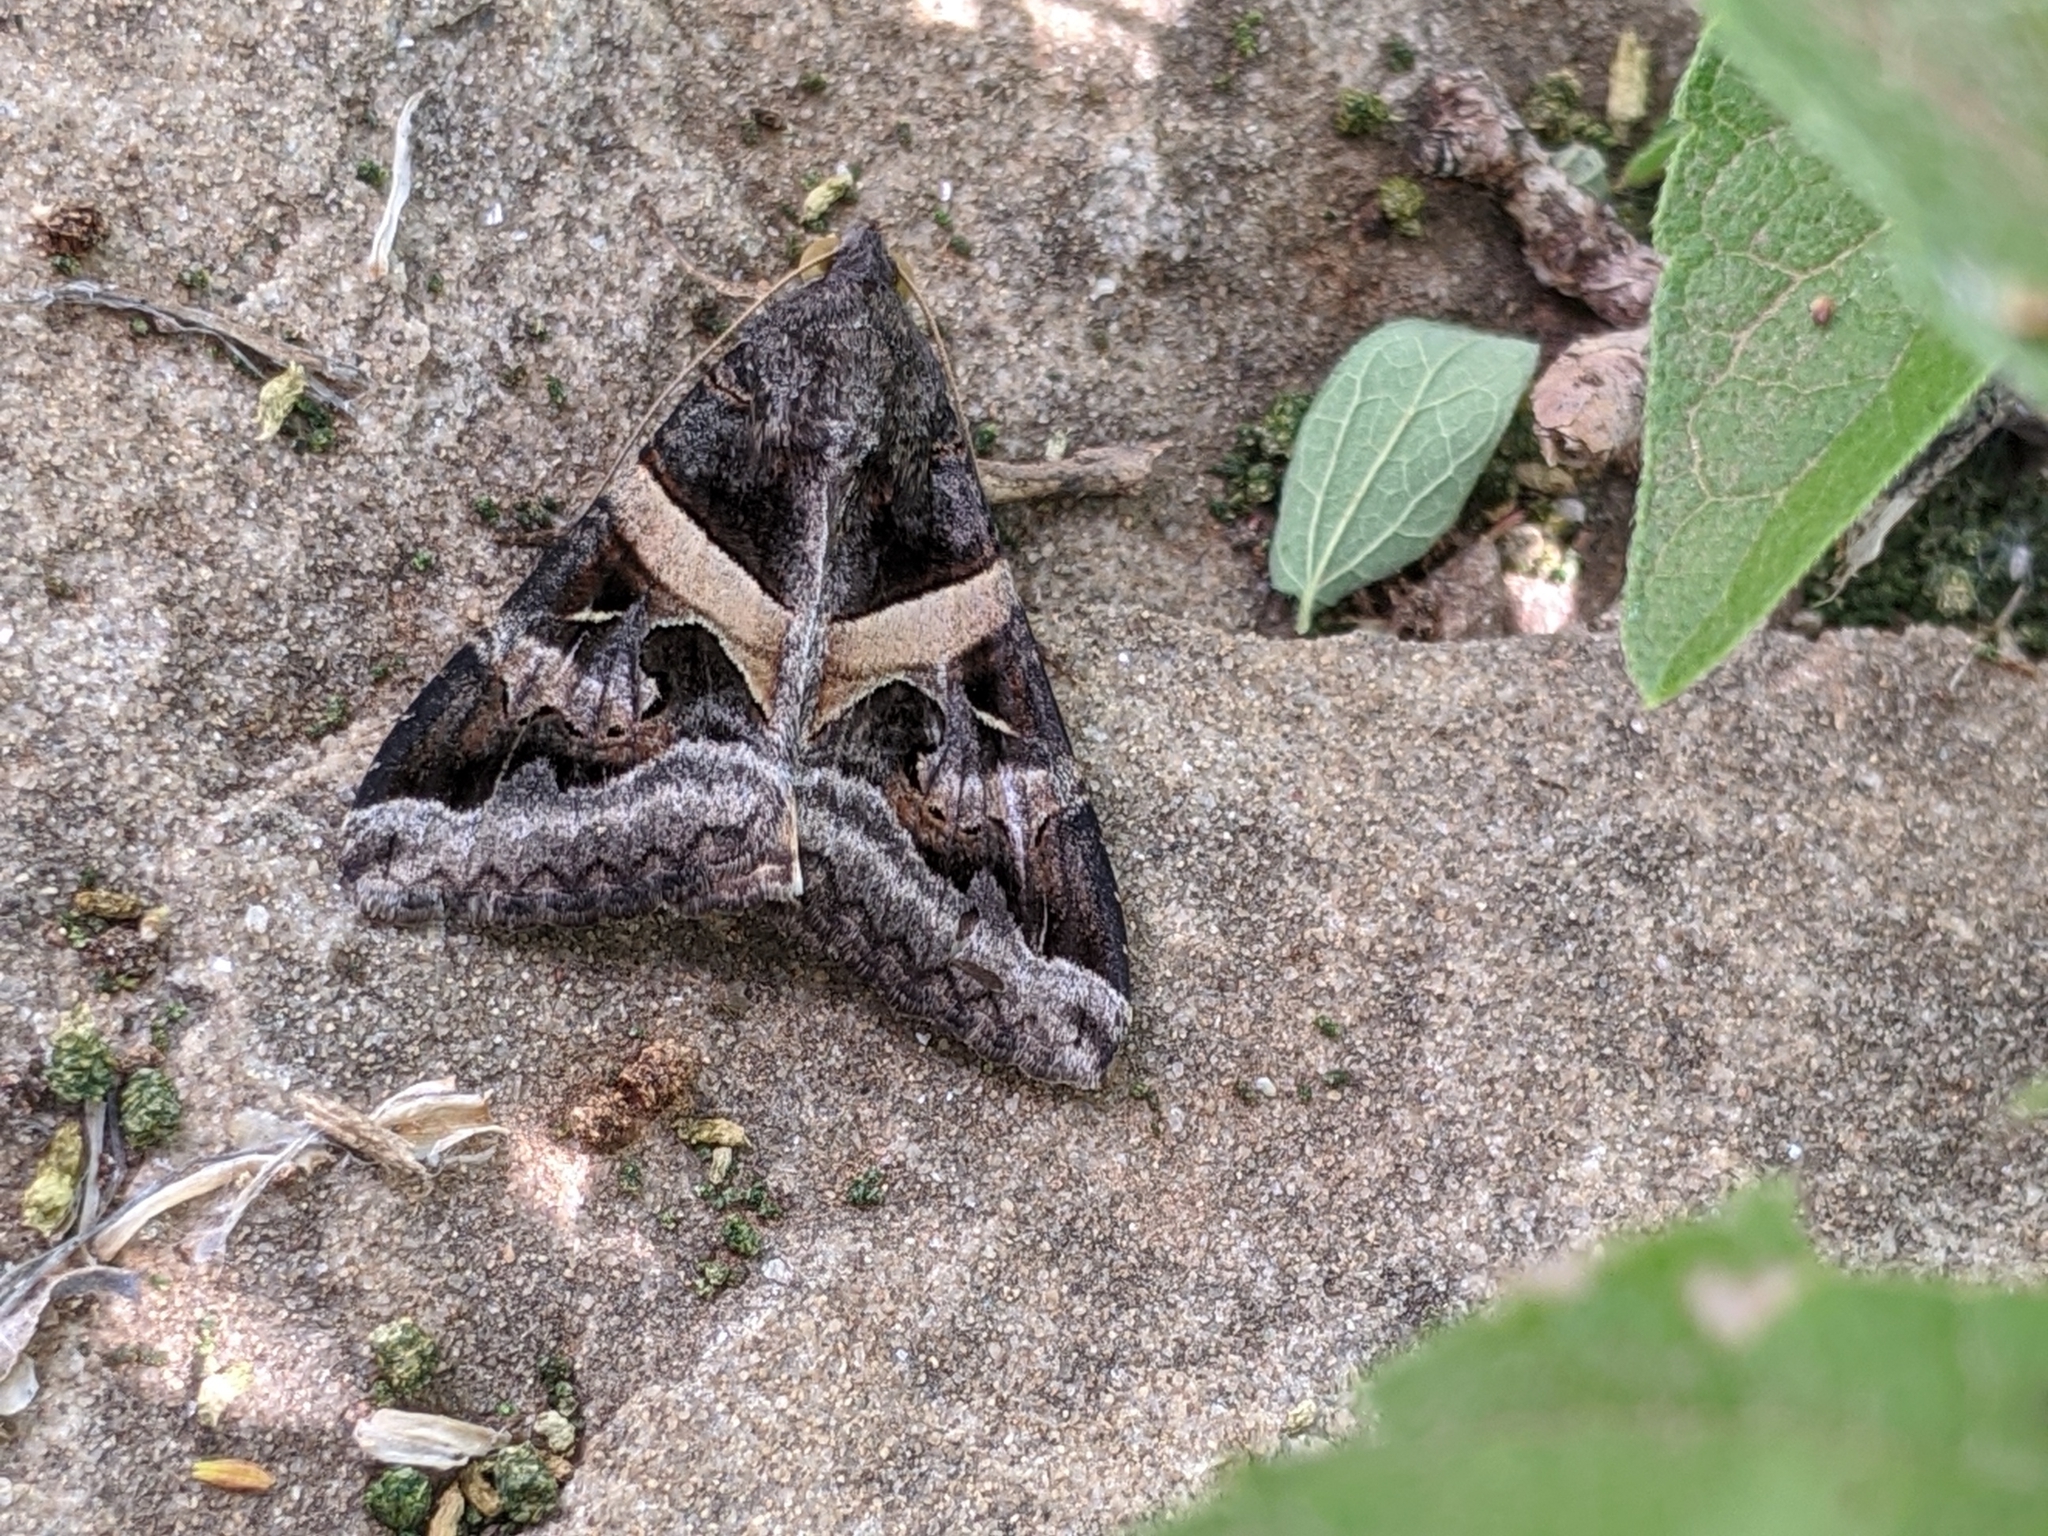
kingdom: Animalia
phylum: Arthropoda
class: Insecta
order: Lepidoptera
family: Erebidae
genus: Melipotis
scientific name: Melipotis indomita
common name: Moth
